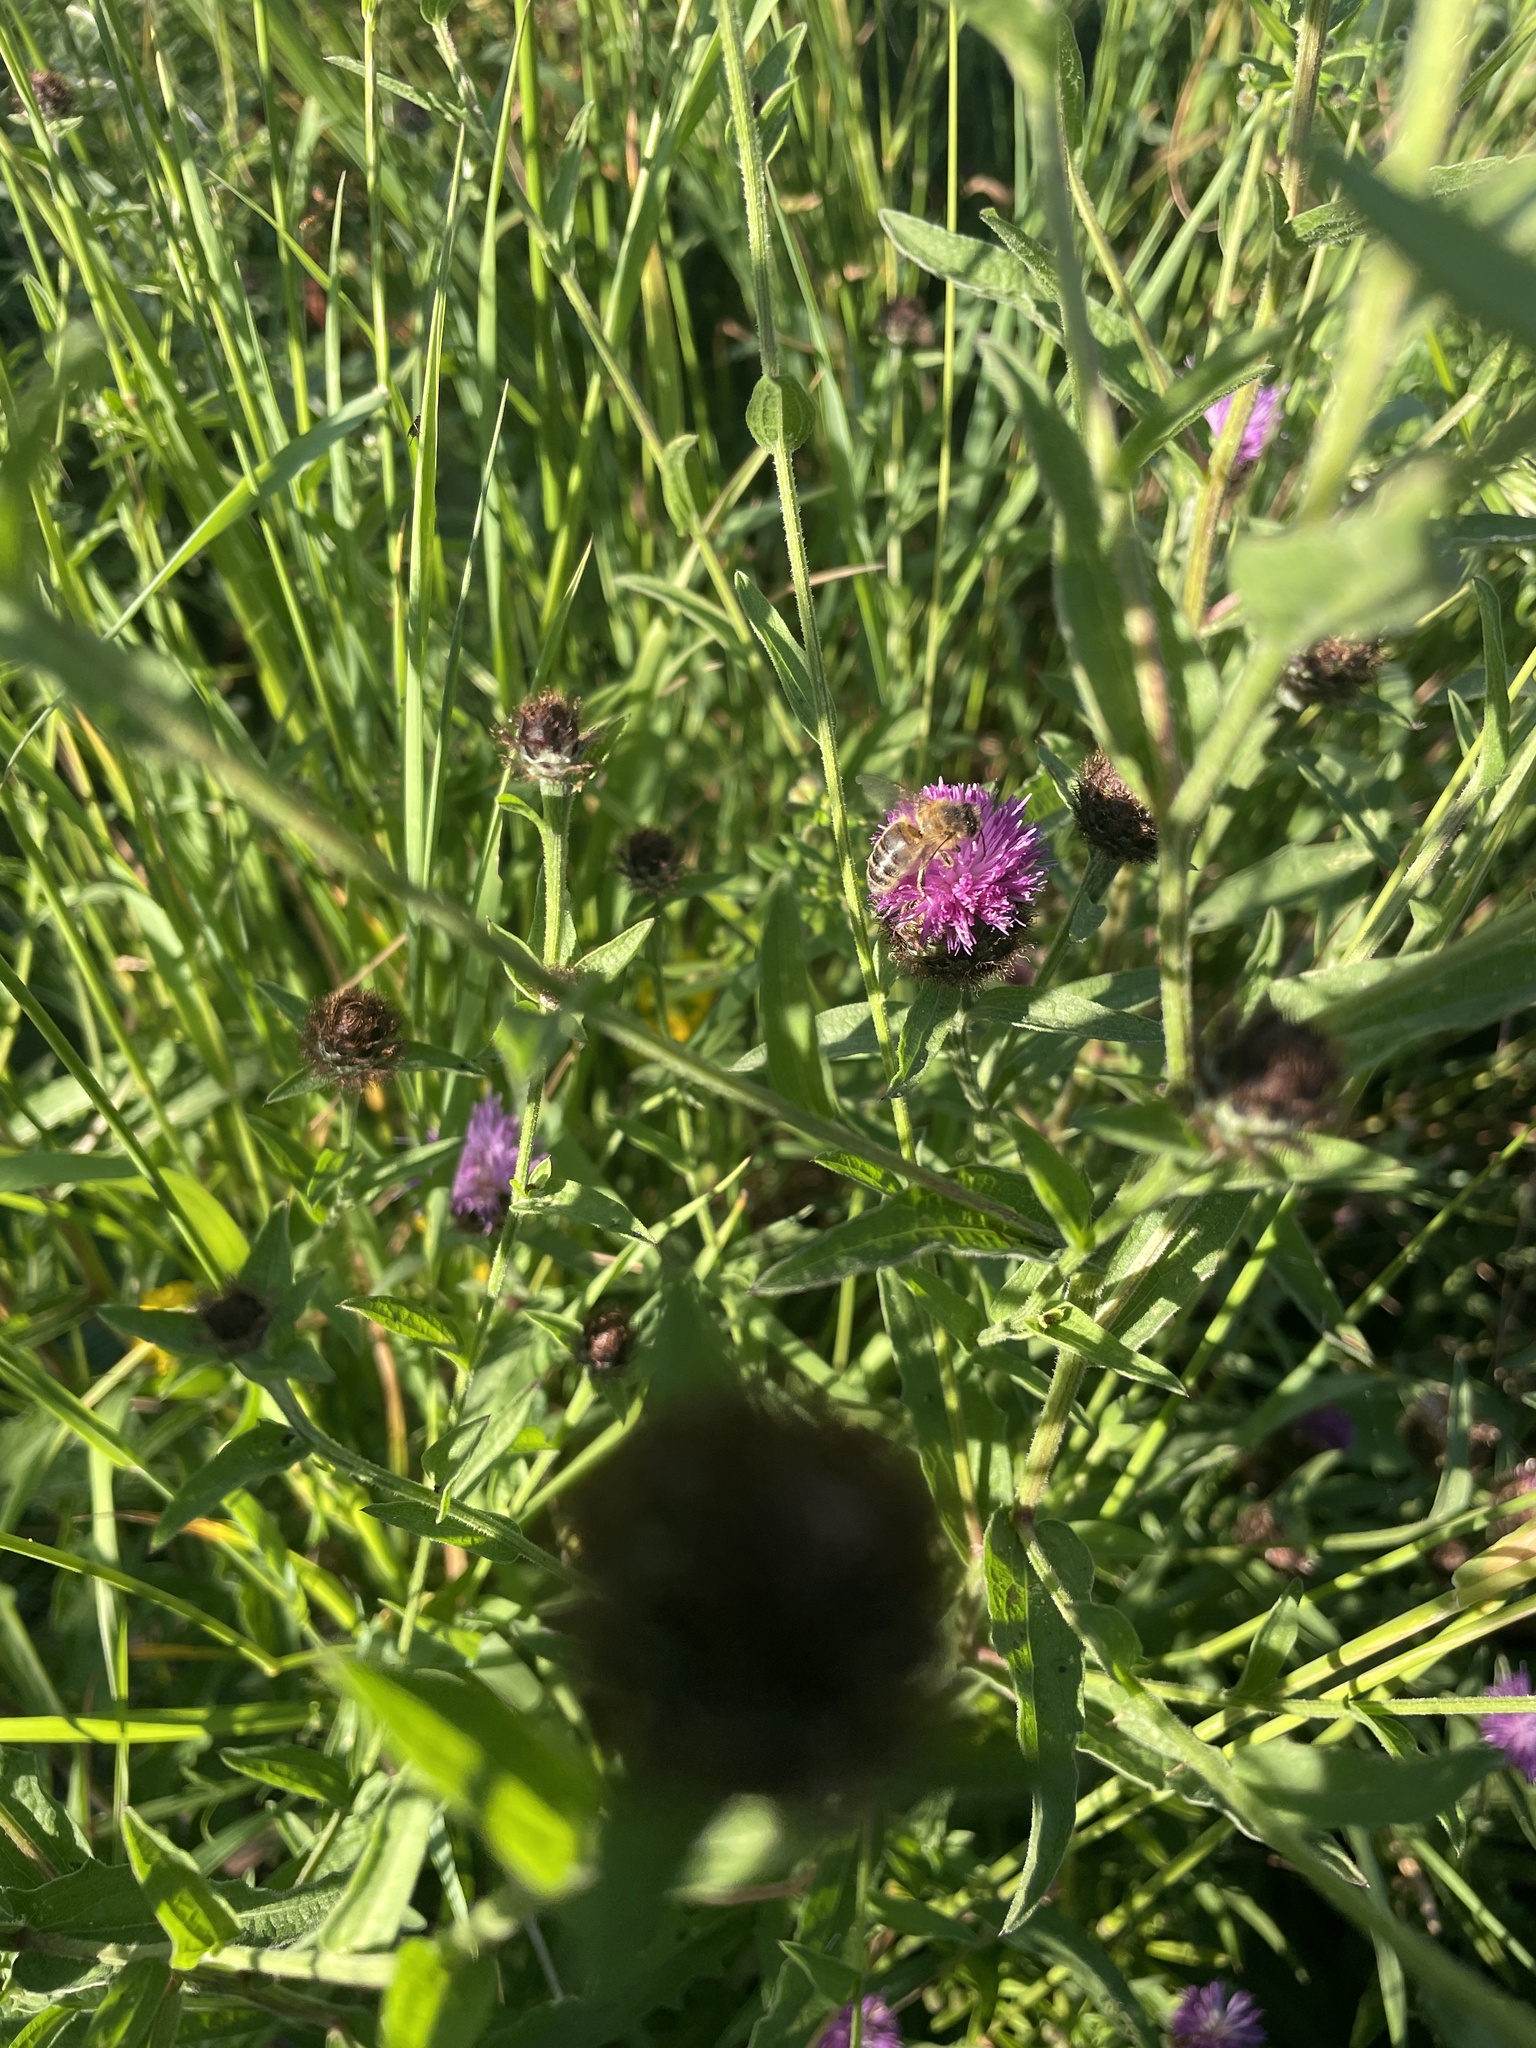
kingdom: Animalia
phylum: Arthropoda
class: Insecta
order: Hymenoptera
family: Apidae
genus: Apis
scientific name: Apis mellifera
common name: Honey bee
